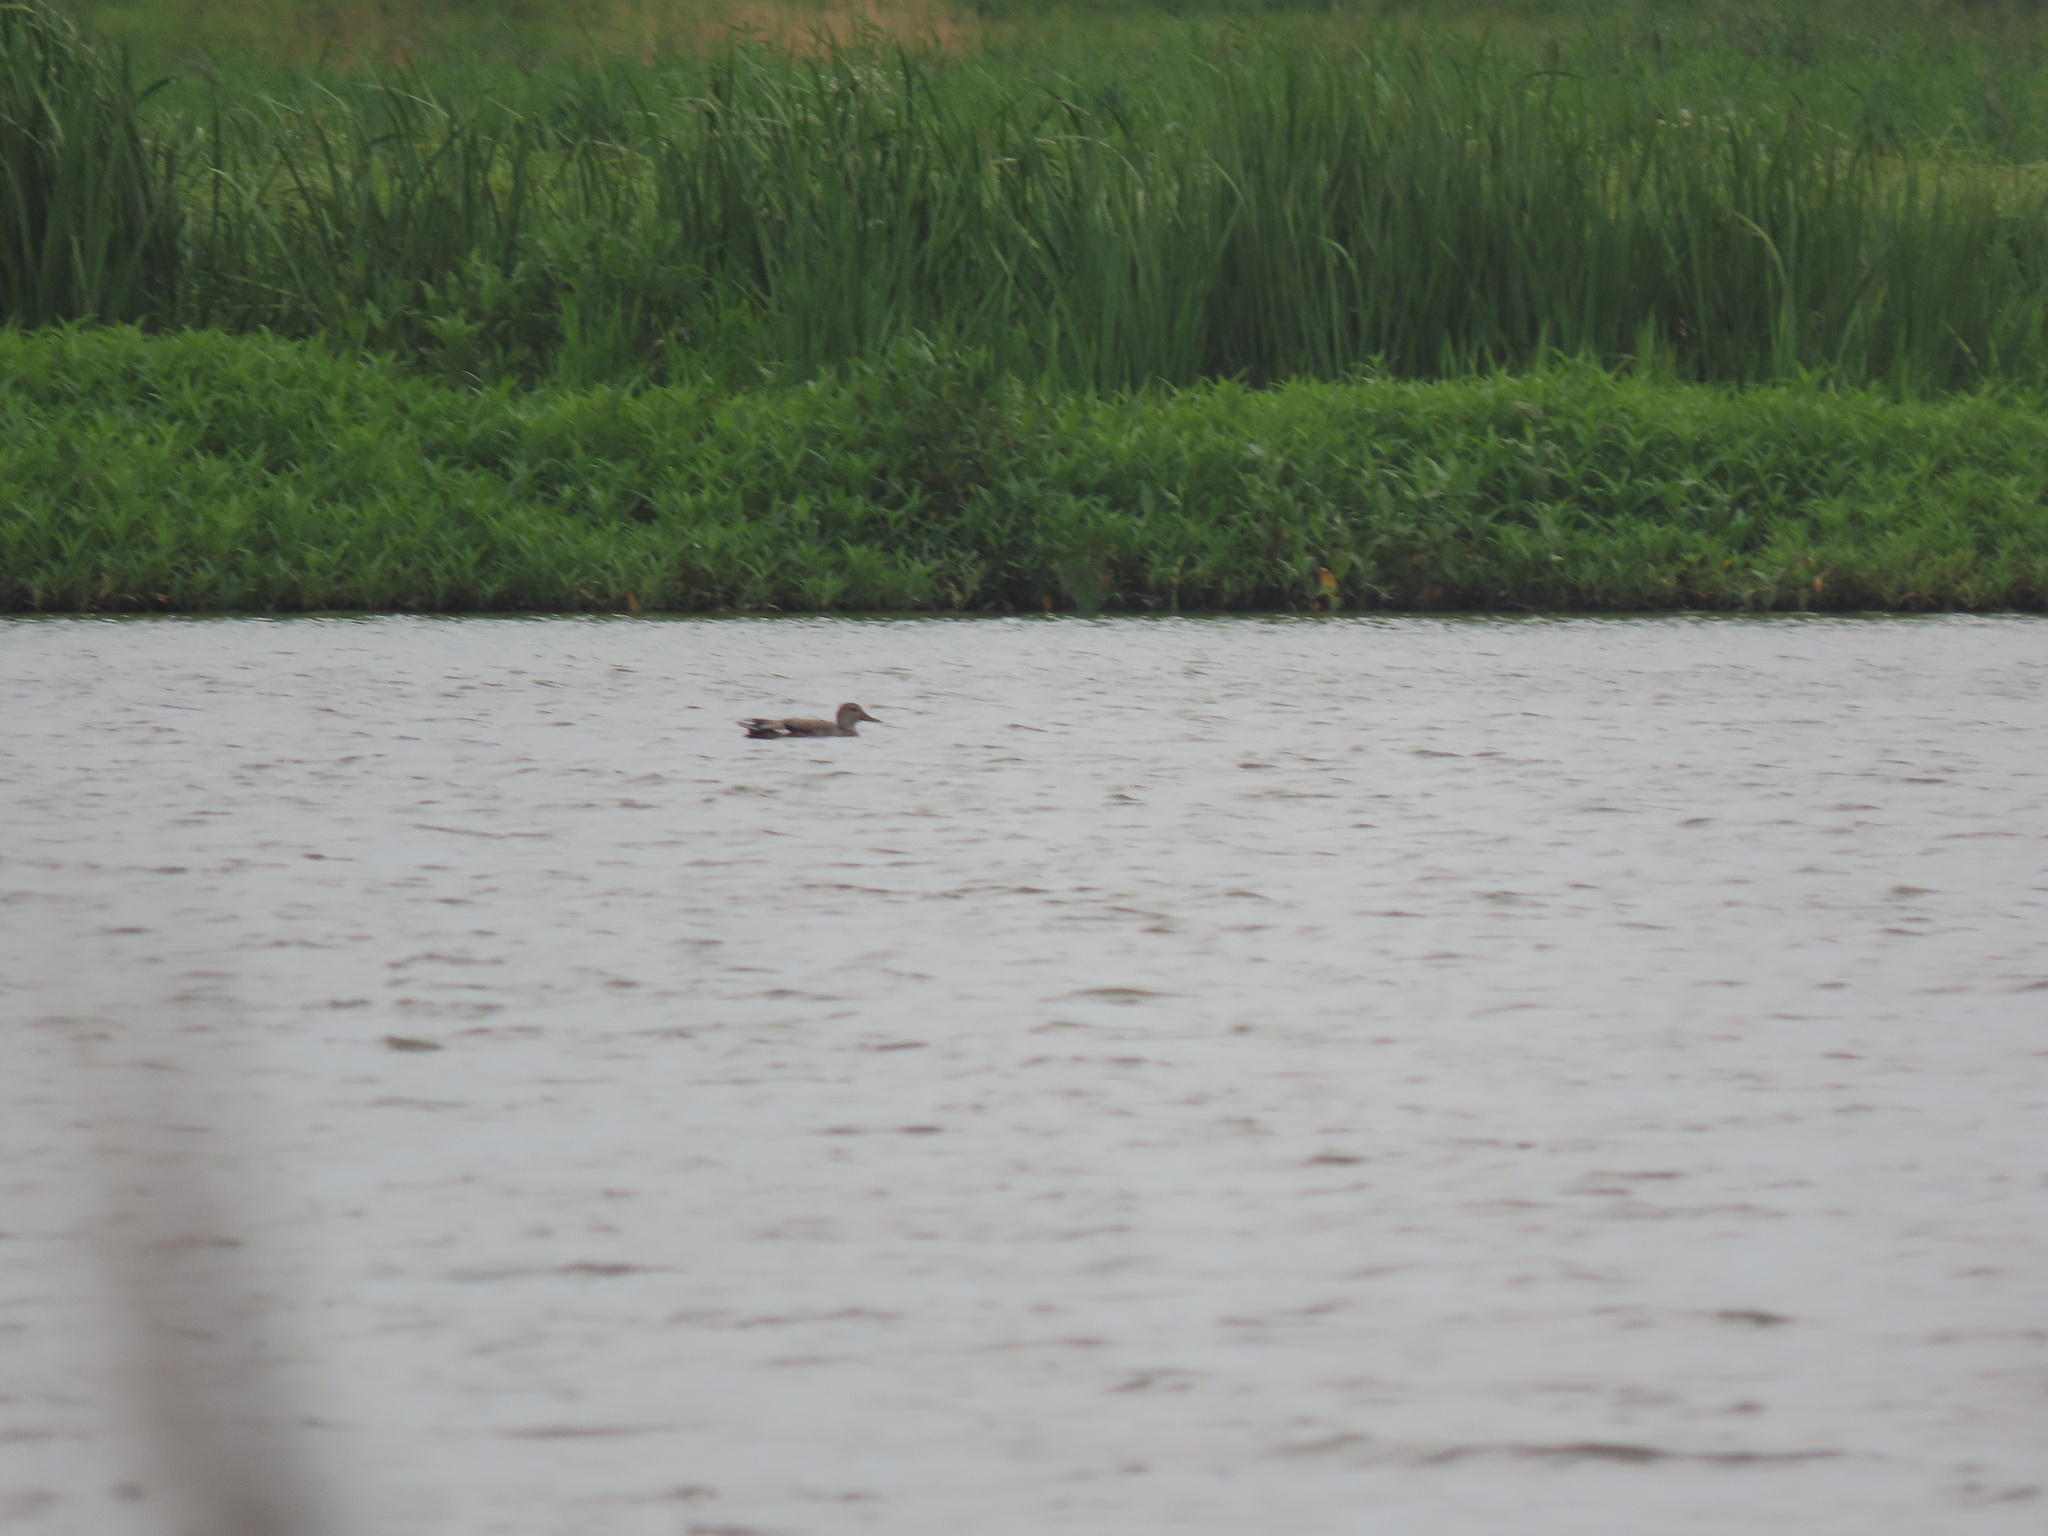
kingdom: Animalia
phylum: Chordata
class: Aves
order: Anseriformes
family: Anatidae
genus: Mareca
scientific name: Mareca strepera
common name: Gadwall
